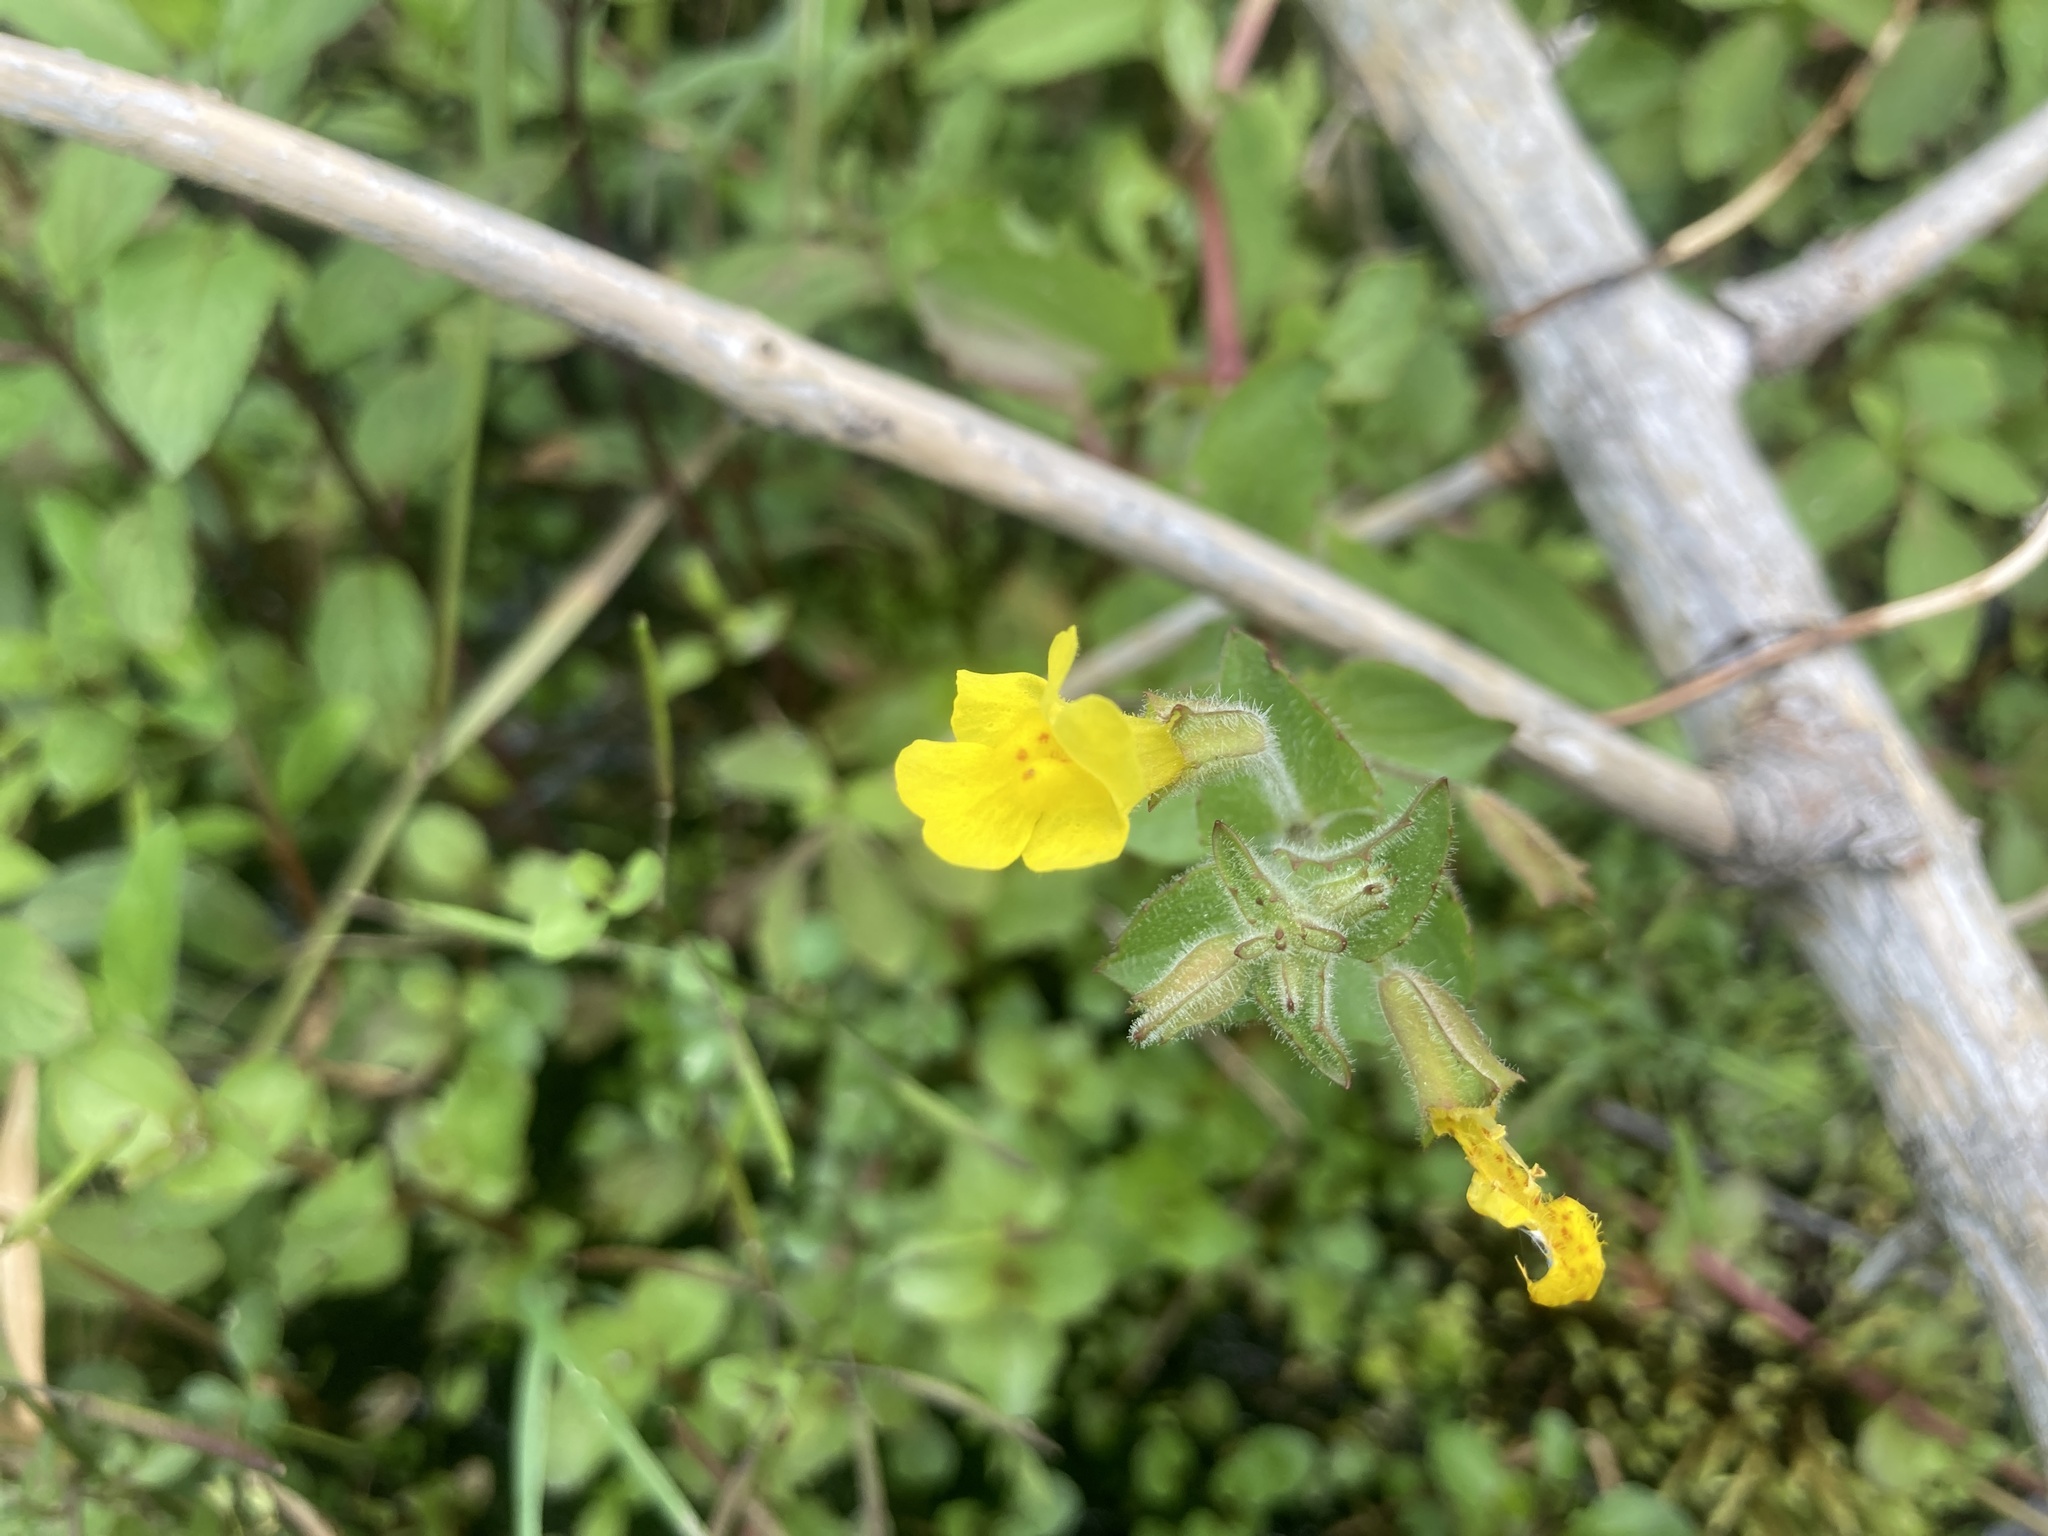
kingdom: Plantae
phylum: Tracheophyta
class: Magnoliopsida
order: Lamiales
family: Phrymaceae
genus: Erythranthe
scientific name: Erythranthe michiganensis
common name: Michigan monkey-flower
